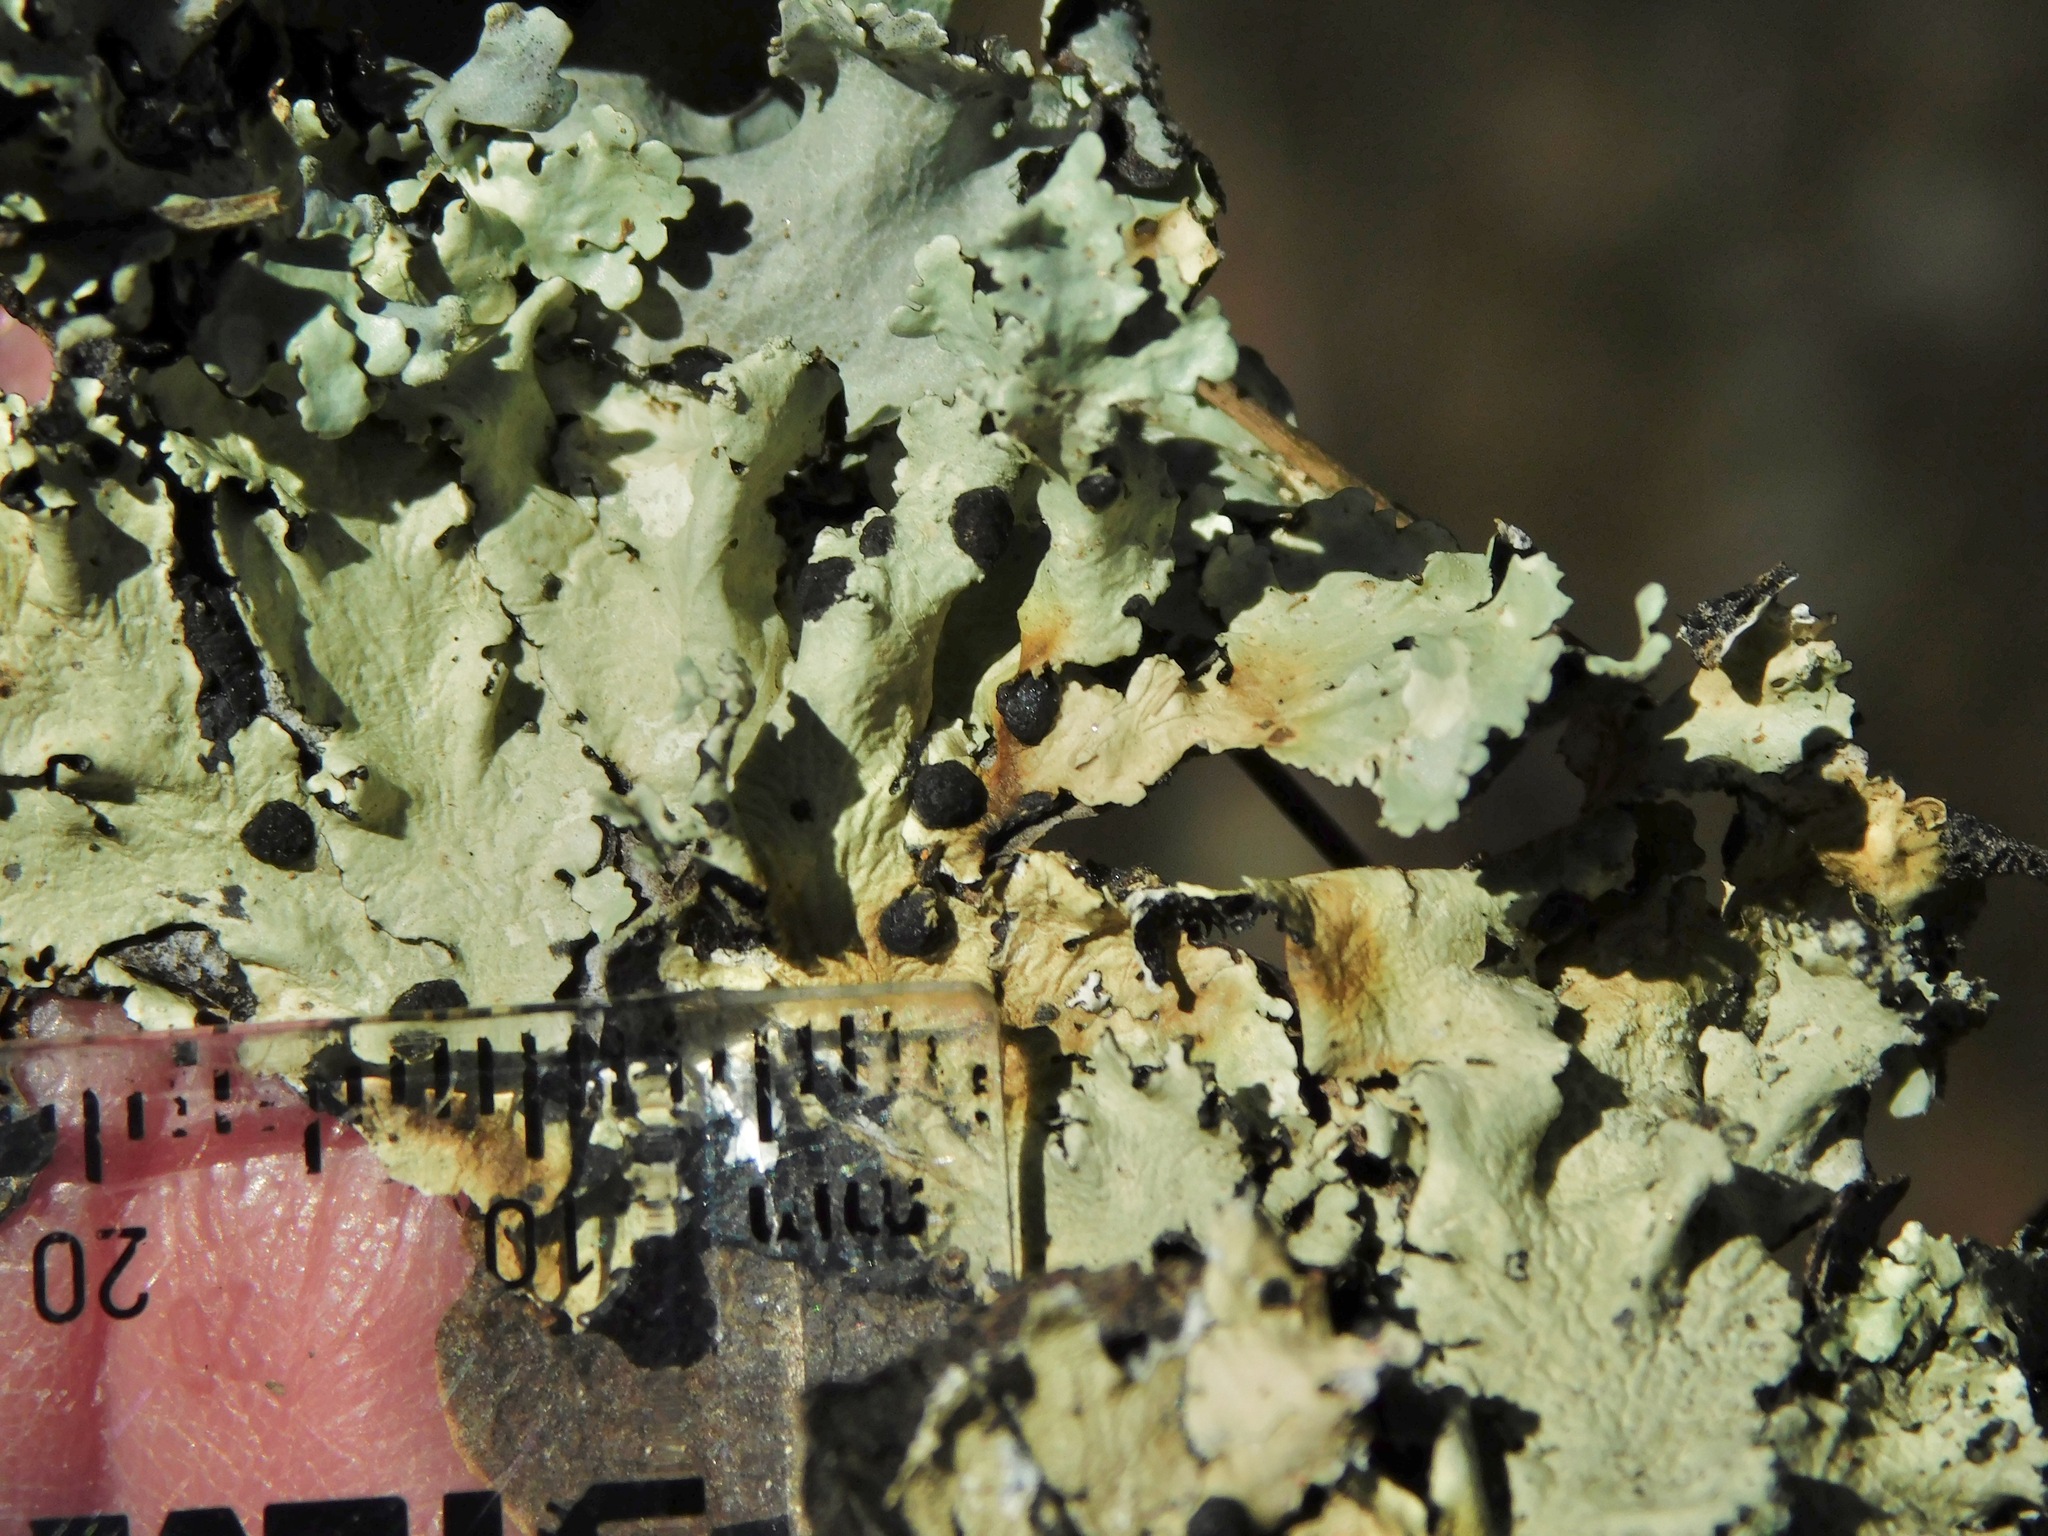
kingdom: Fungi
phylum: Ascomycota
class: Lecanoromycetes
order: Lecanorales
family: Parmeliaceae
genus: Flavoparmelia
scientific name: Flavoparmelia caperata
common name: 40-mile per hour lichen
